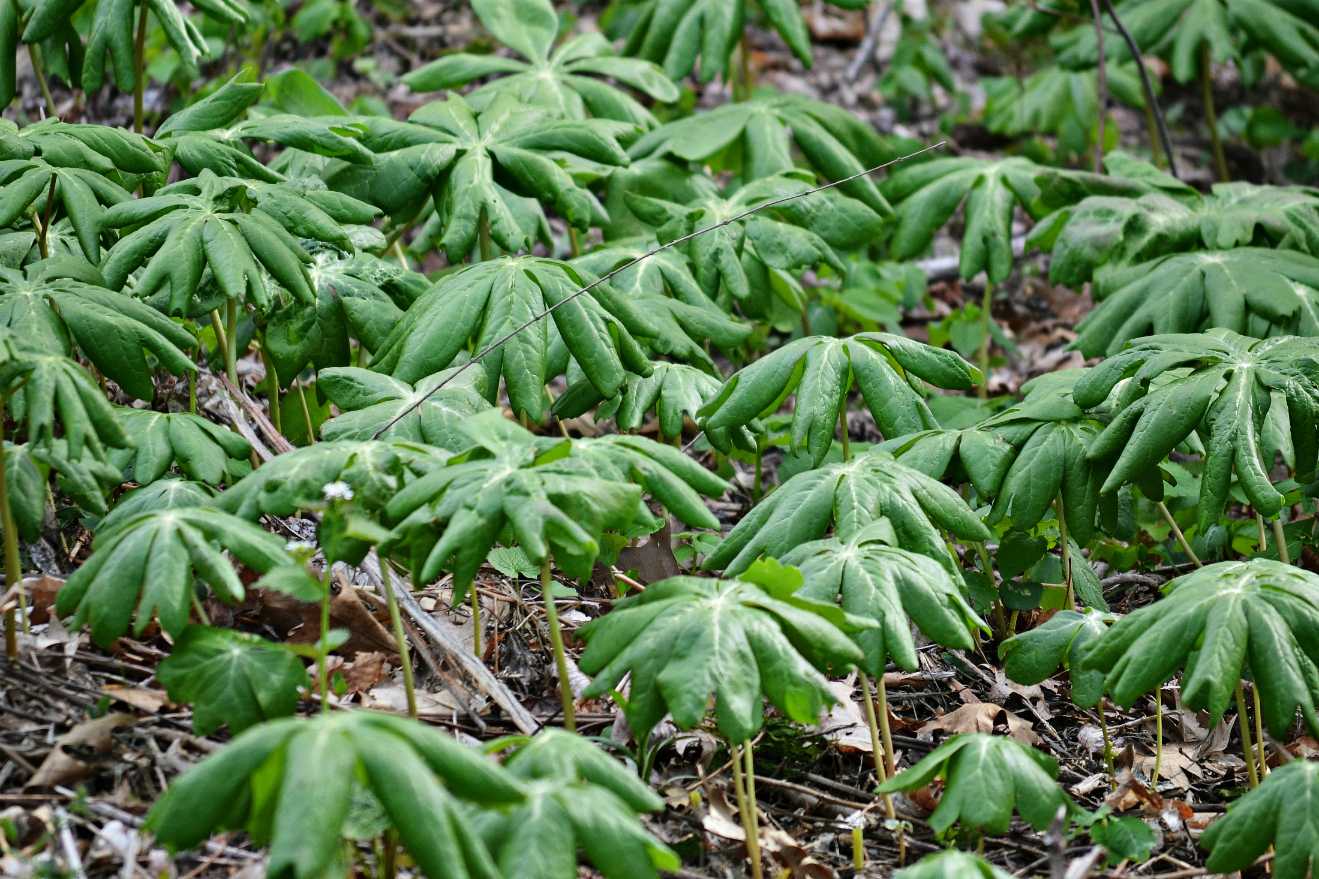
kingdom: Plantae
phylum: Tracheophyta
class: Magnoliopsida
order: Ranunculales
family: Berberidaceae
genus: Podophyllum
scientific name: Podophyllum peltatum
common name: Wild mandrake
